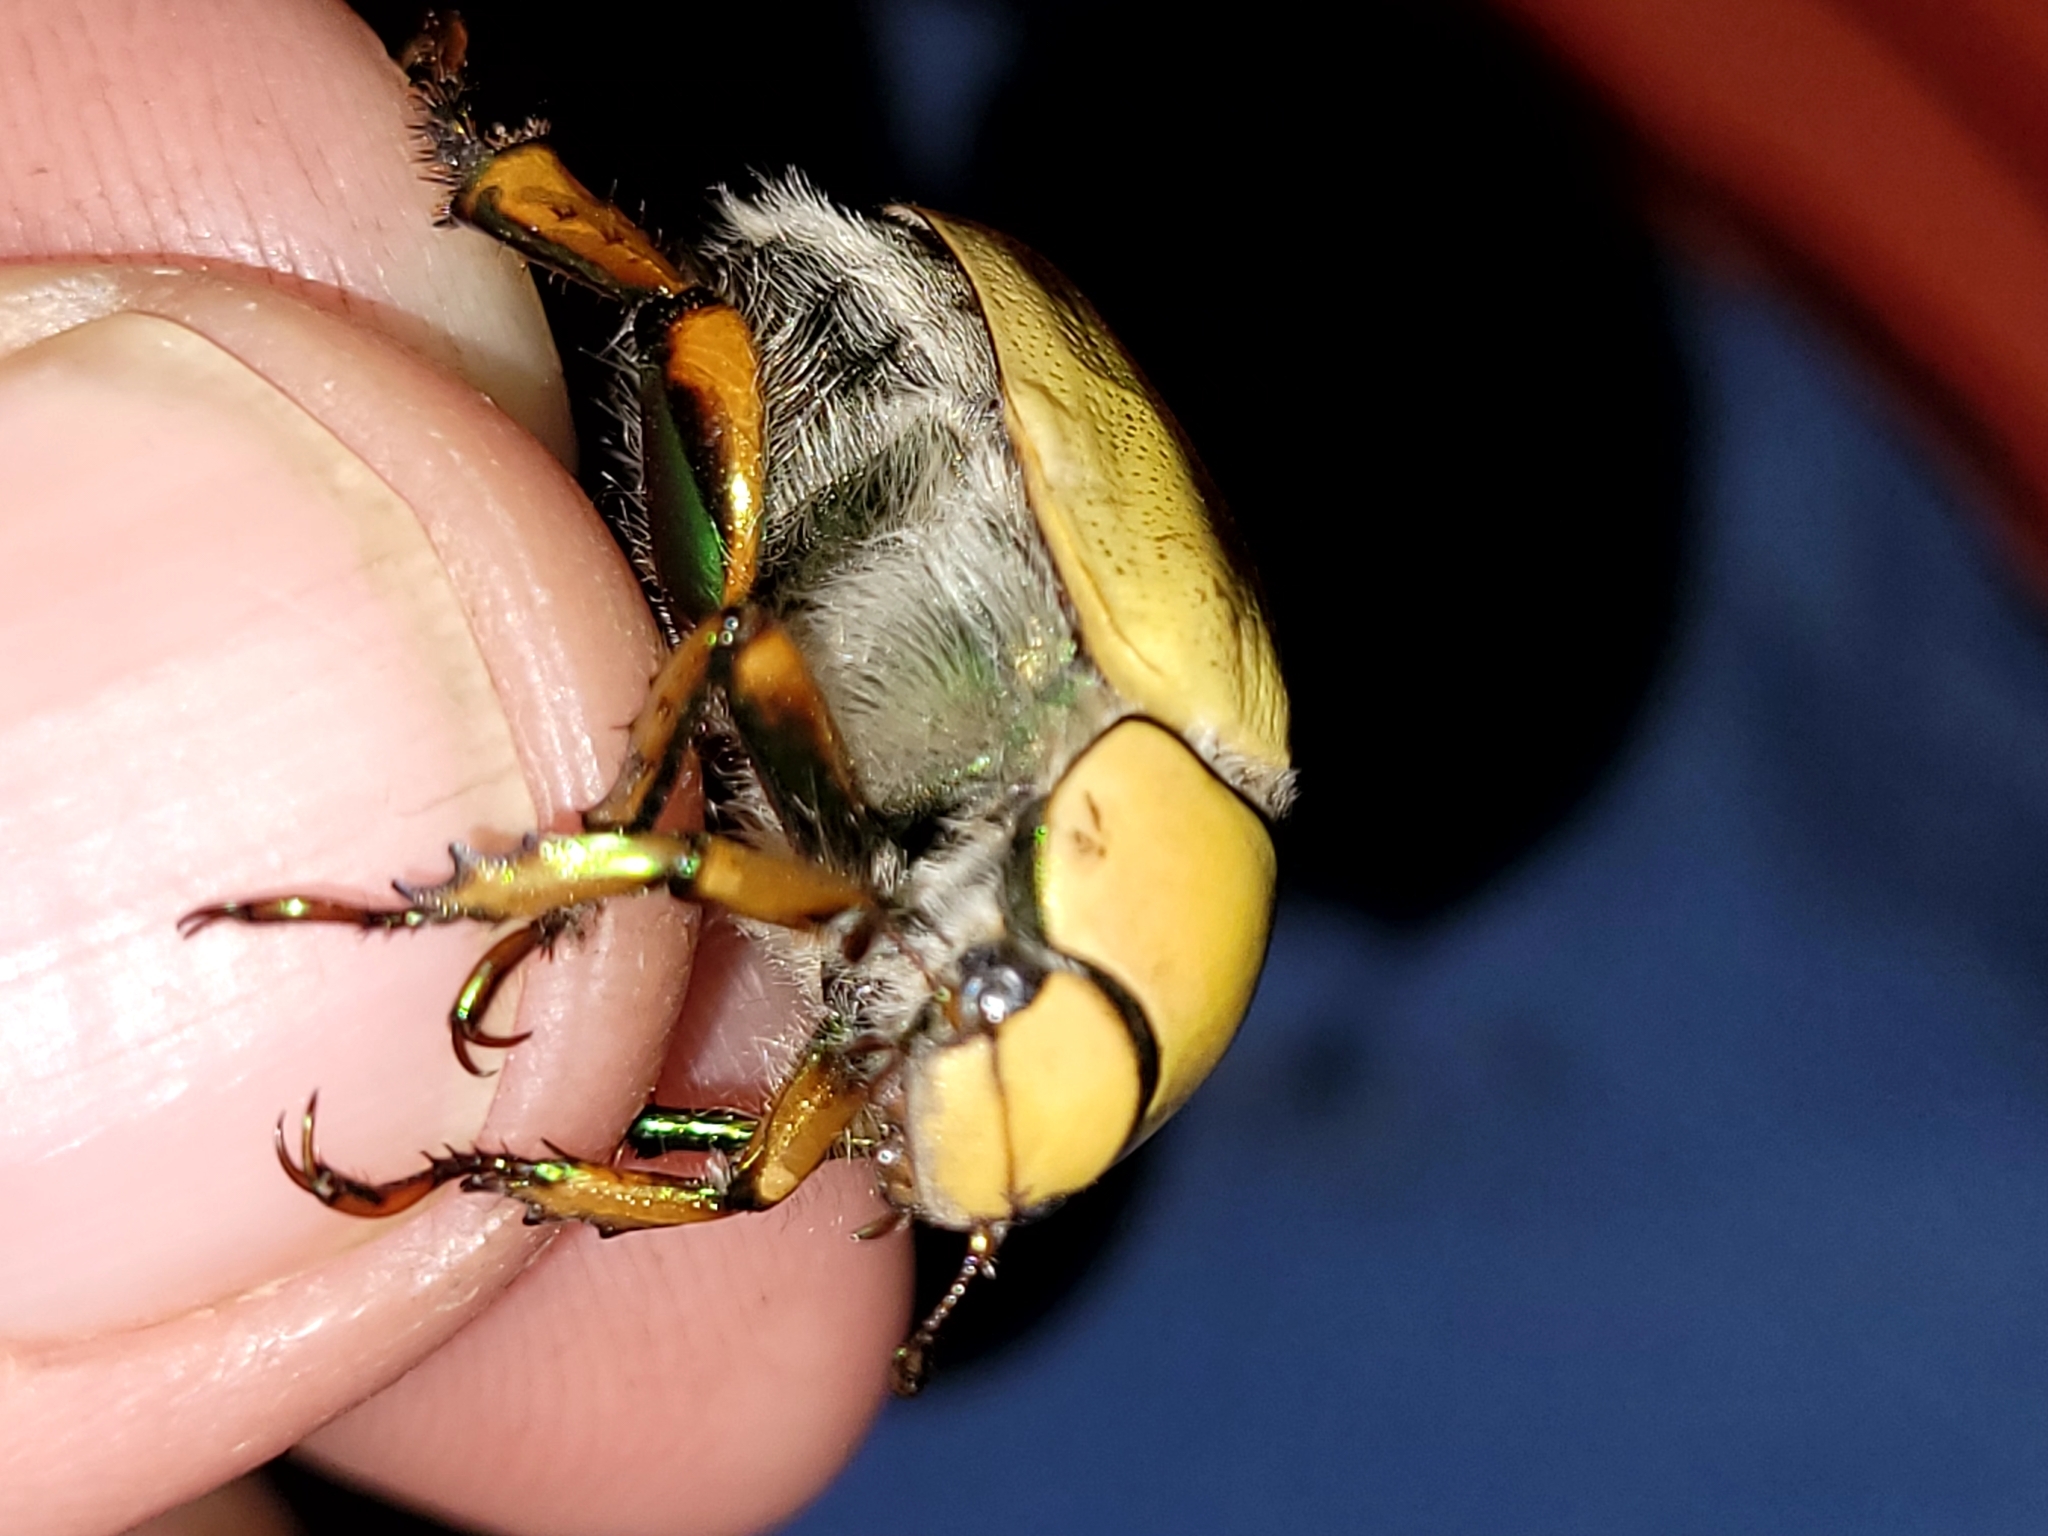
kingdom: Animalia
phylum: Arthropoda
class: Insecta
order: Coleoptera
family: Scarabaeidae
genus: Cotalpa
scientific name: Cotalpa lanigera
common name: Goldsmith beetle
